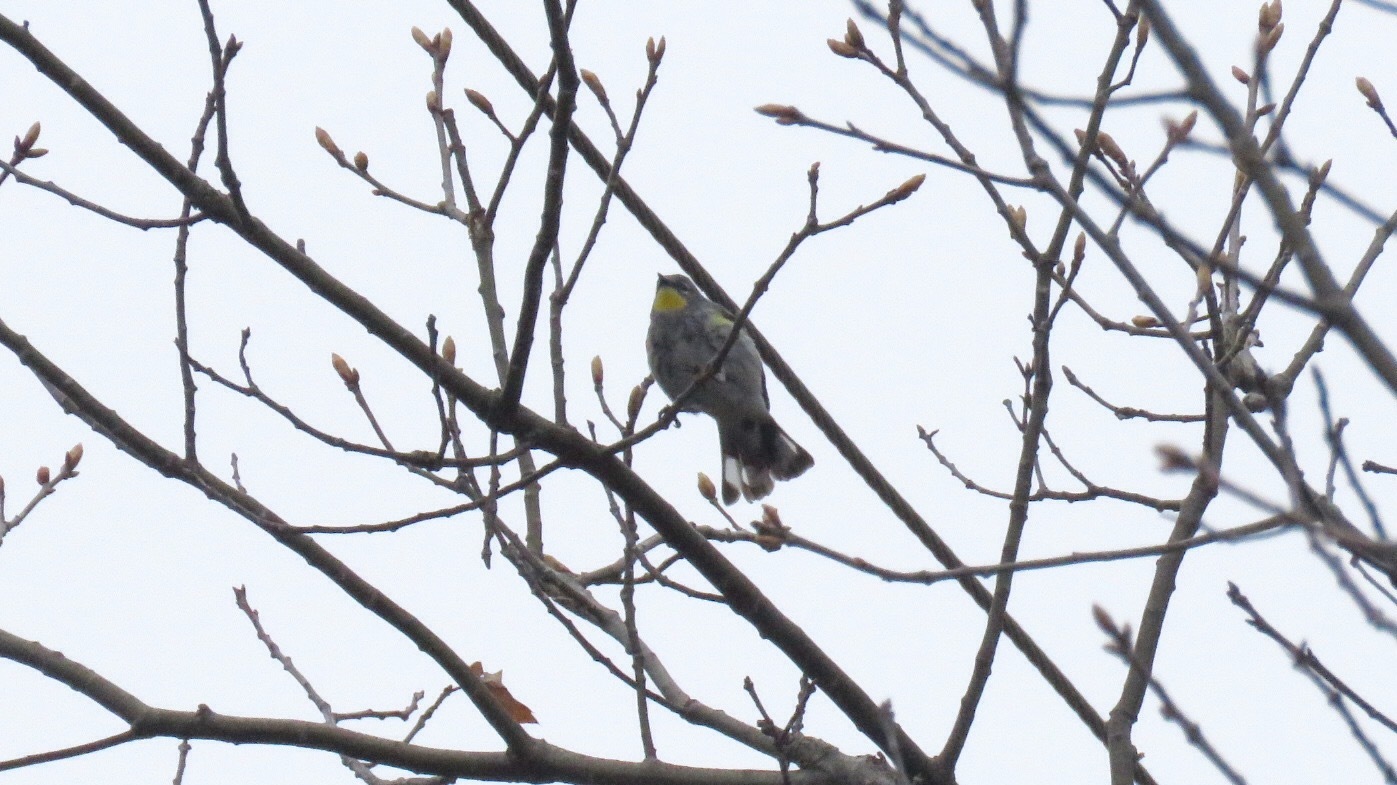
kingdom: Animalia
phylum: Chordata
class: Aves
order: Passeriformes
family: Parulidae
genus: Setophaga
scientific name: Setophaga auduboni
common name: Audubon's warbler
